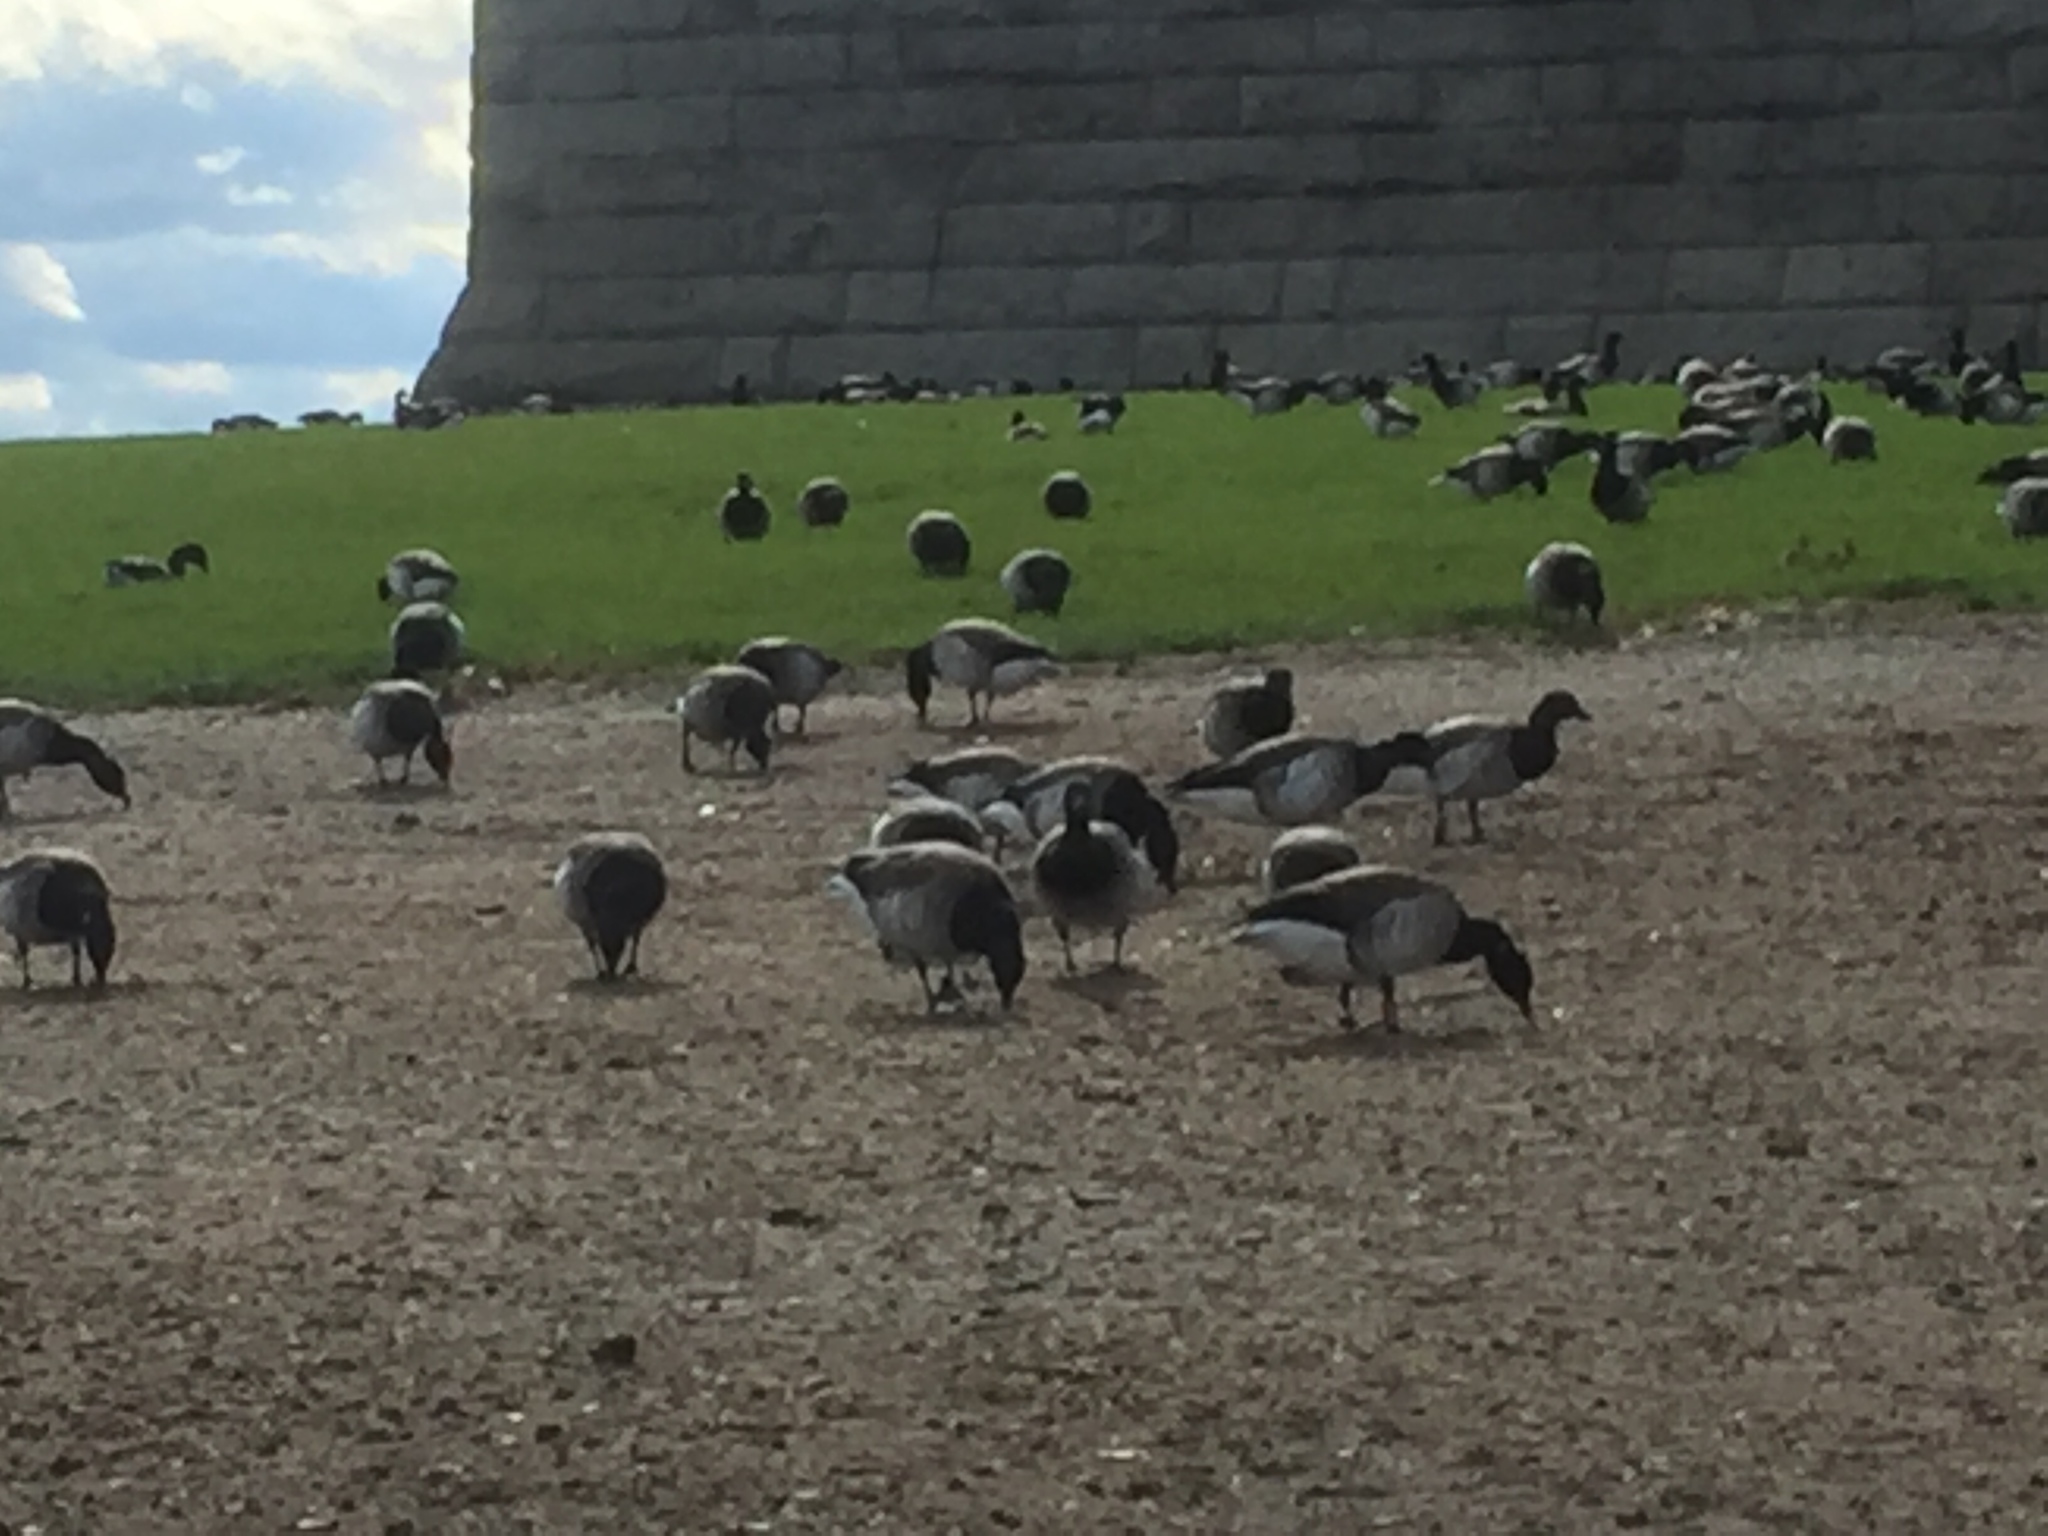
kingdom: Animalia
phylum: Chordata
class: Aves
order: Anseriformes
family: Anatidae
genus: Branta
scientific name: Branta bernicla
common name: Brant goose
